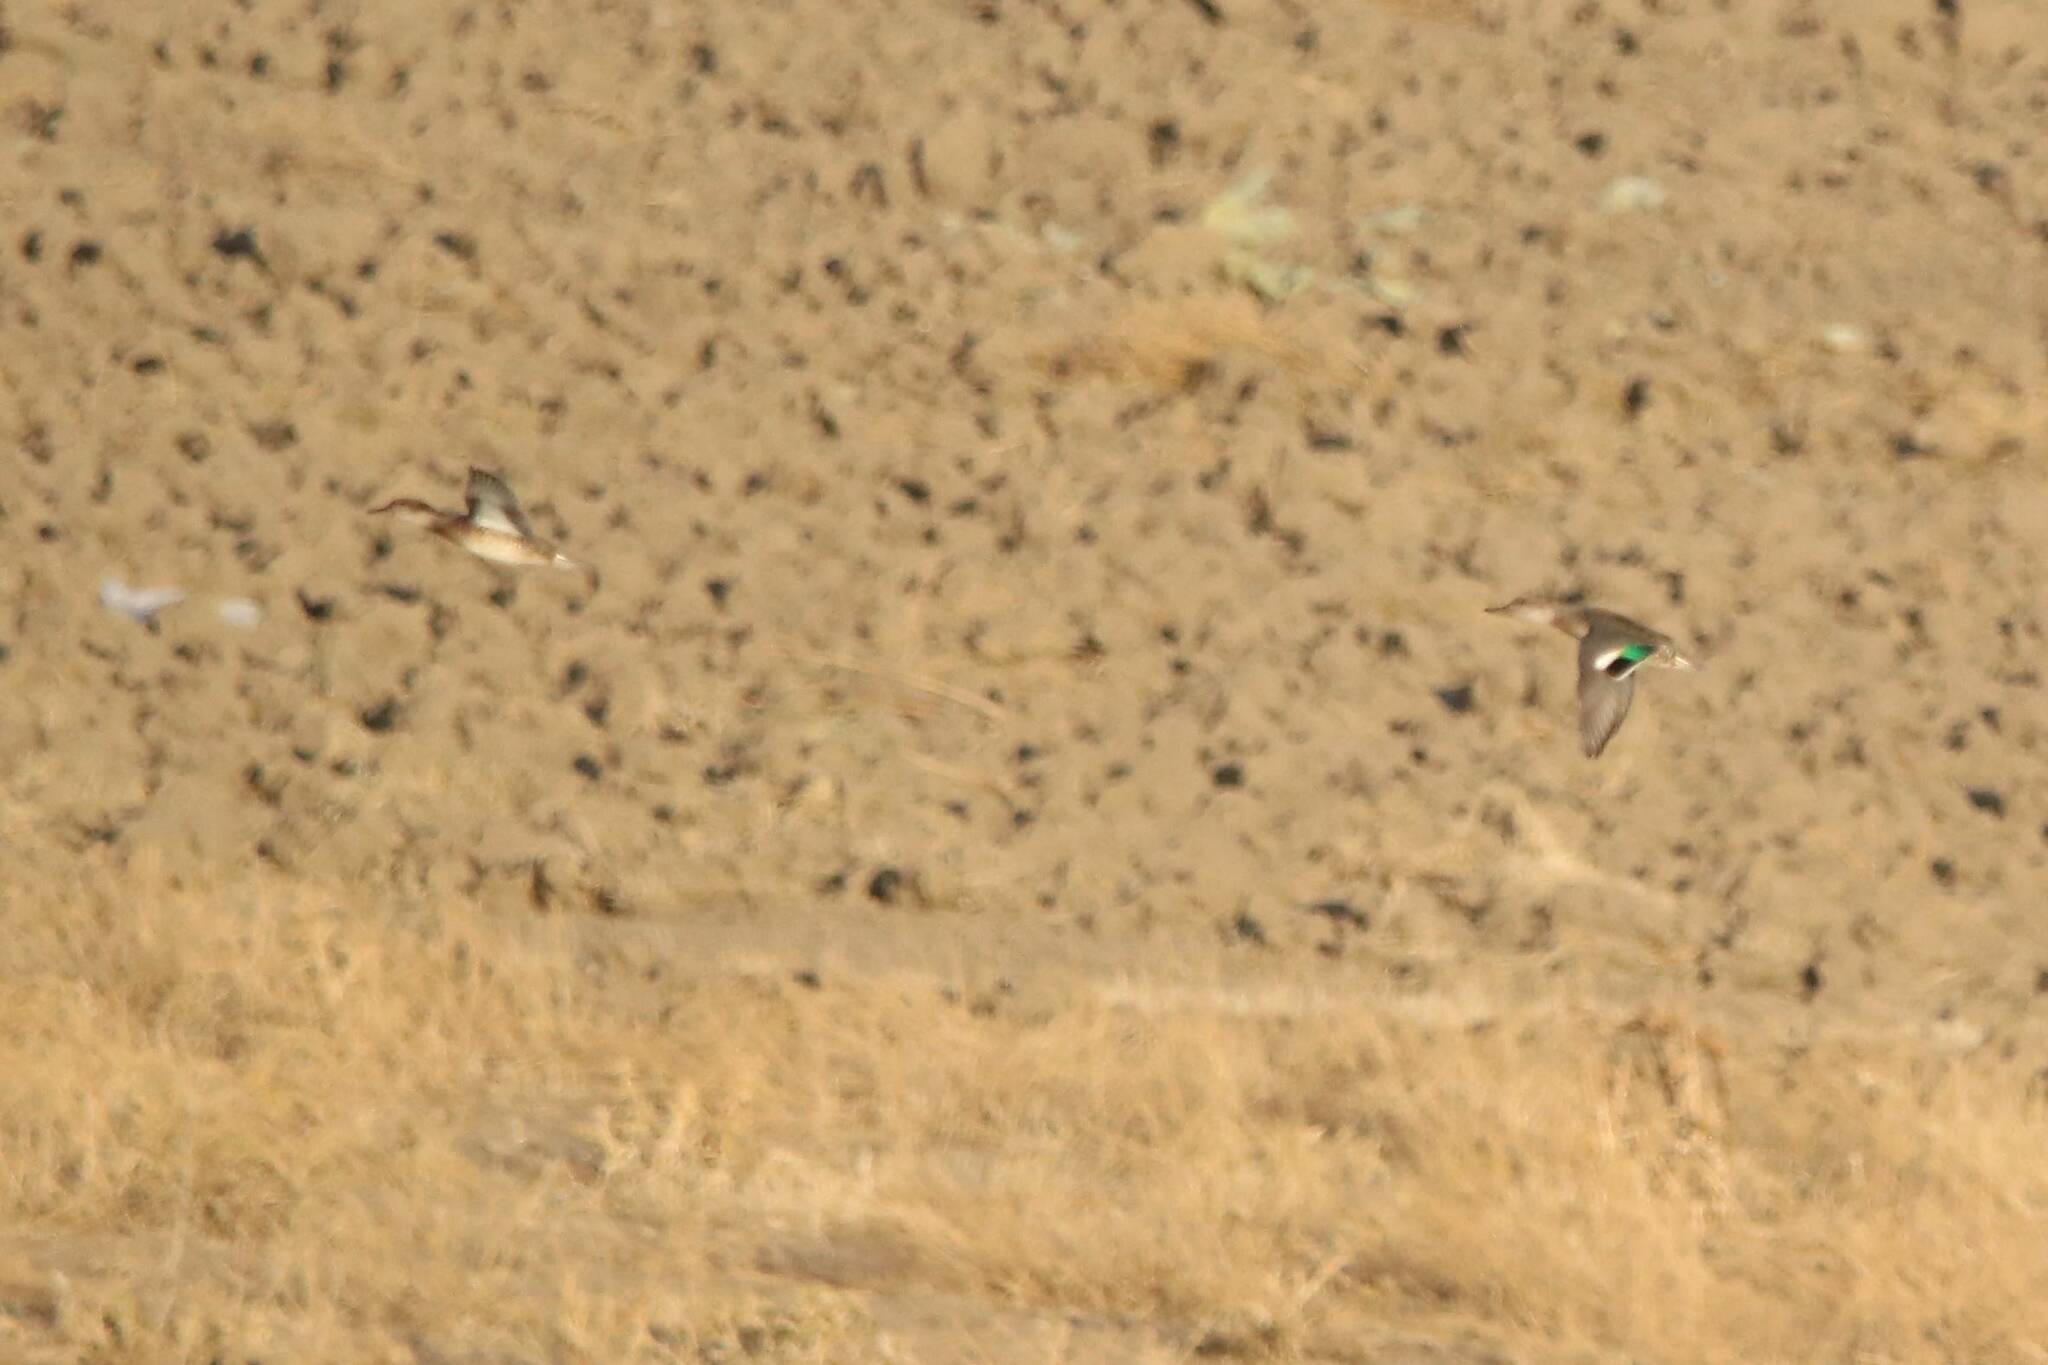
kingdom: Animalia
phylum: Chordata
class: Aves
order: Anseriformes
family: Anatidae
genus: Anas
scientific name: Anas crecca
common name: Eurasian teal
